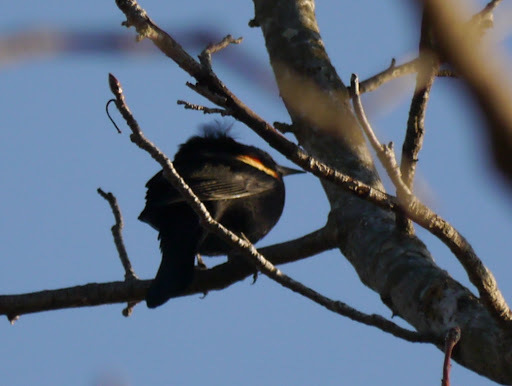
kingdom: Animalia
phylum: Chordata
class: Aves
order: Passeriformes
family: Icteridae
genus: Agelaius
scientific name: Agelaius phoeniceus
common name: Red-winged blackbird
